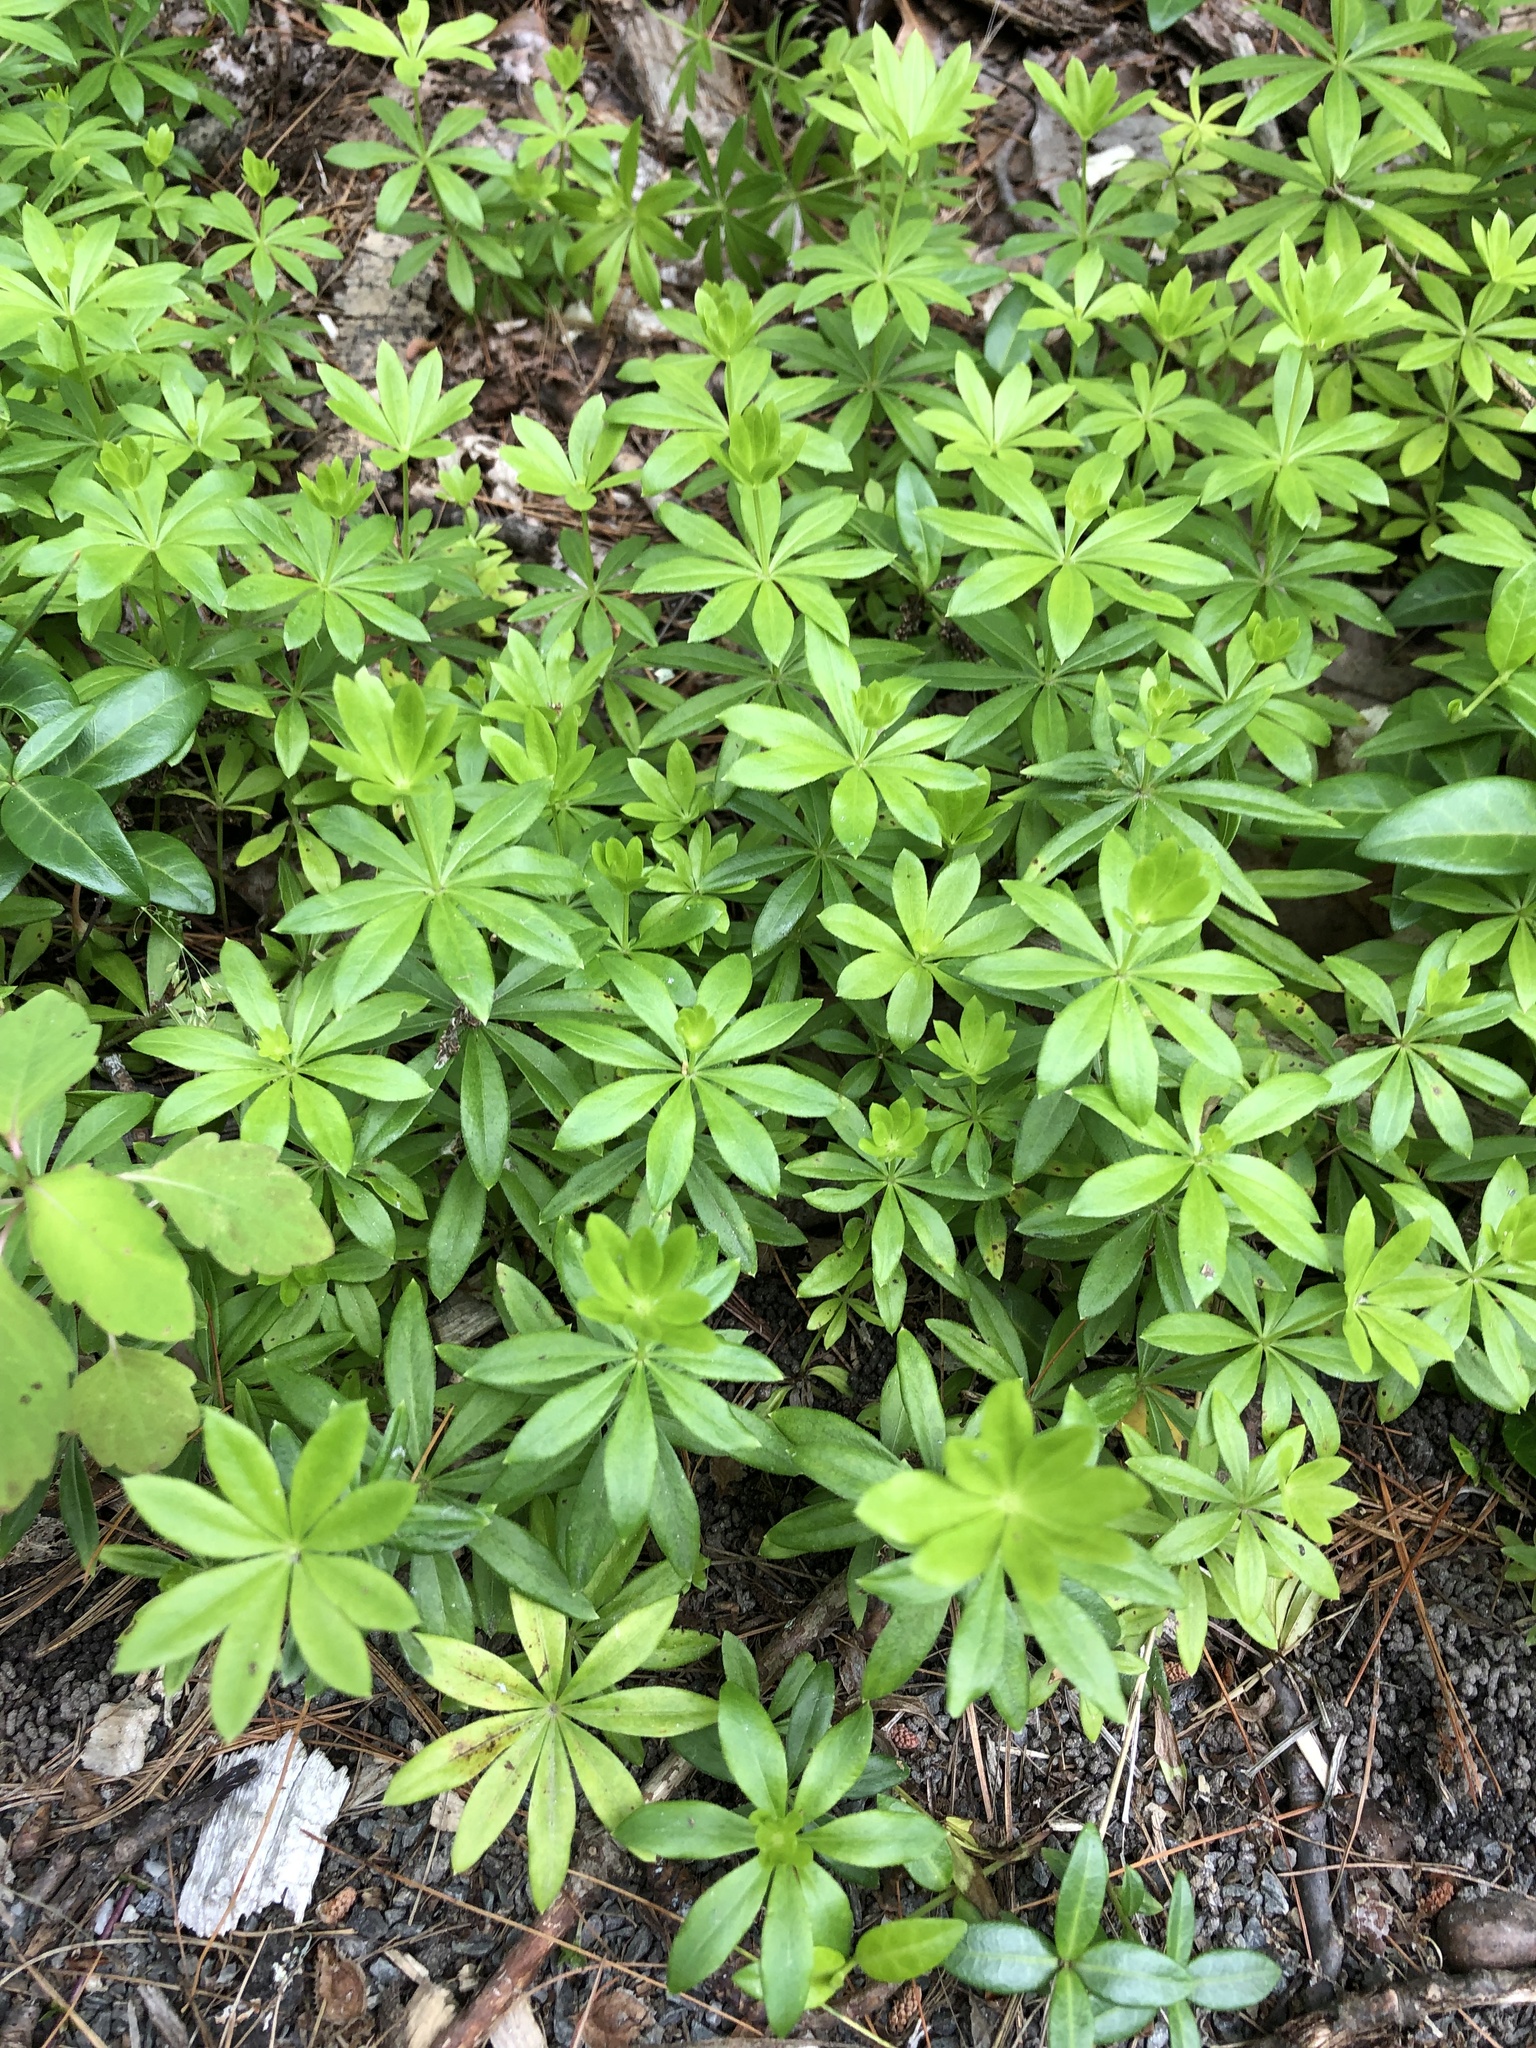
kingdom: Plantae
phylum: Tracheophyta
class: Magnoliopsida
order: Gentianales
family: Rubiaceae
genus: Galium
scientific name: Galium odoratum
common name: Sweet woodruff
